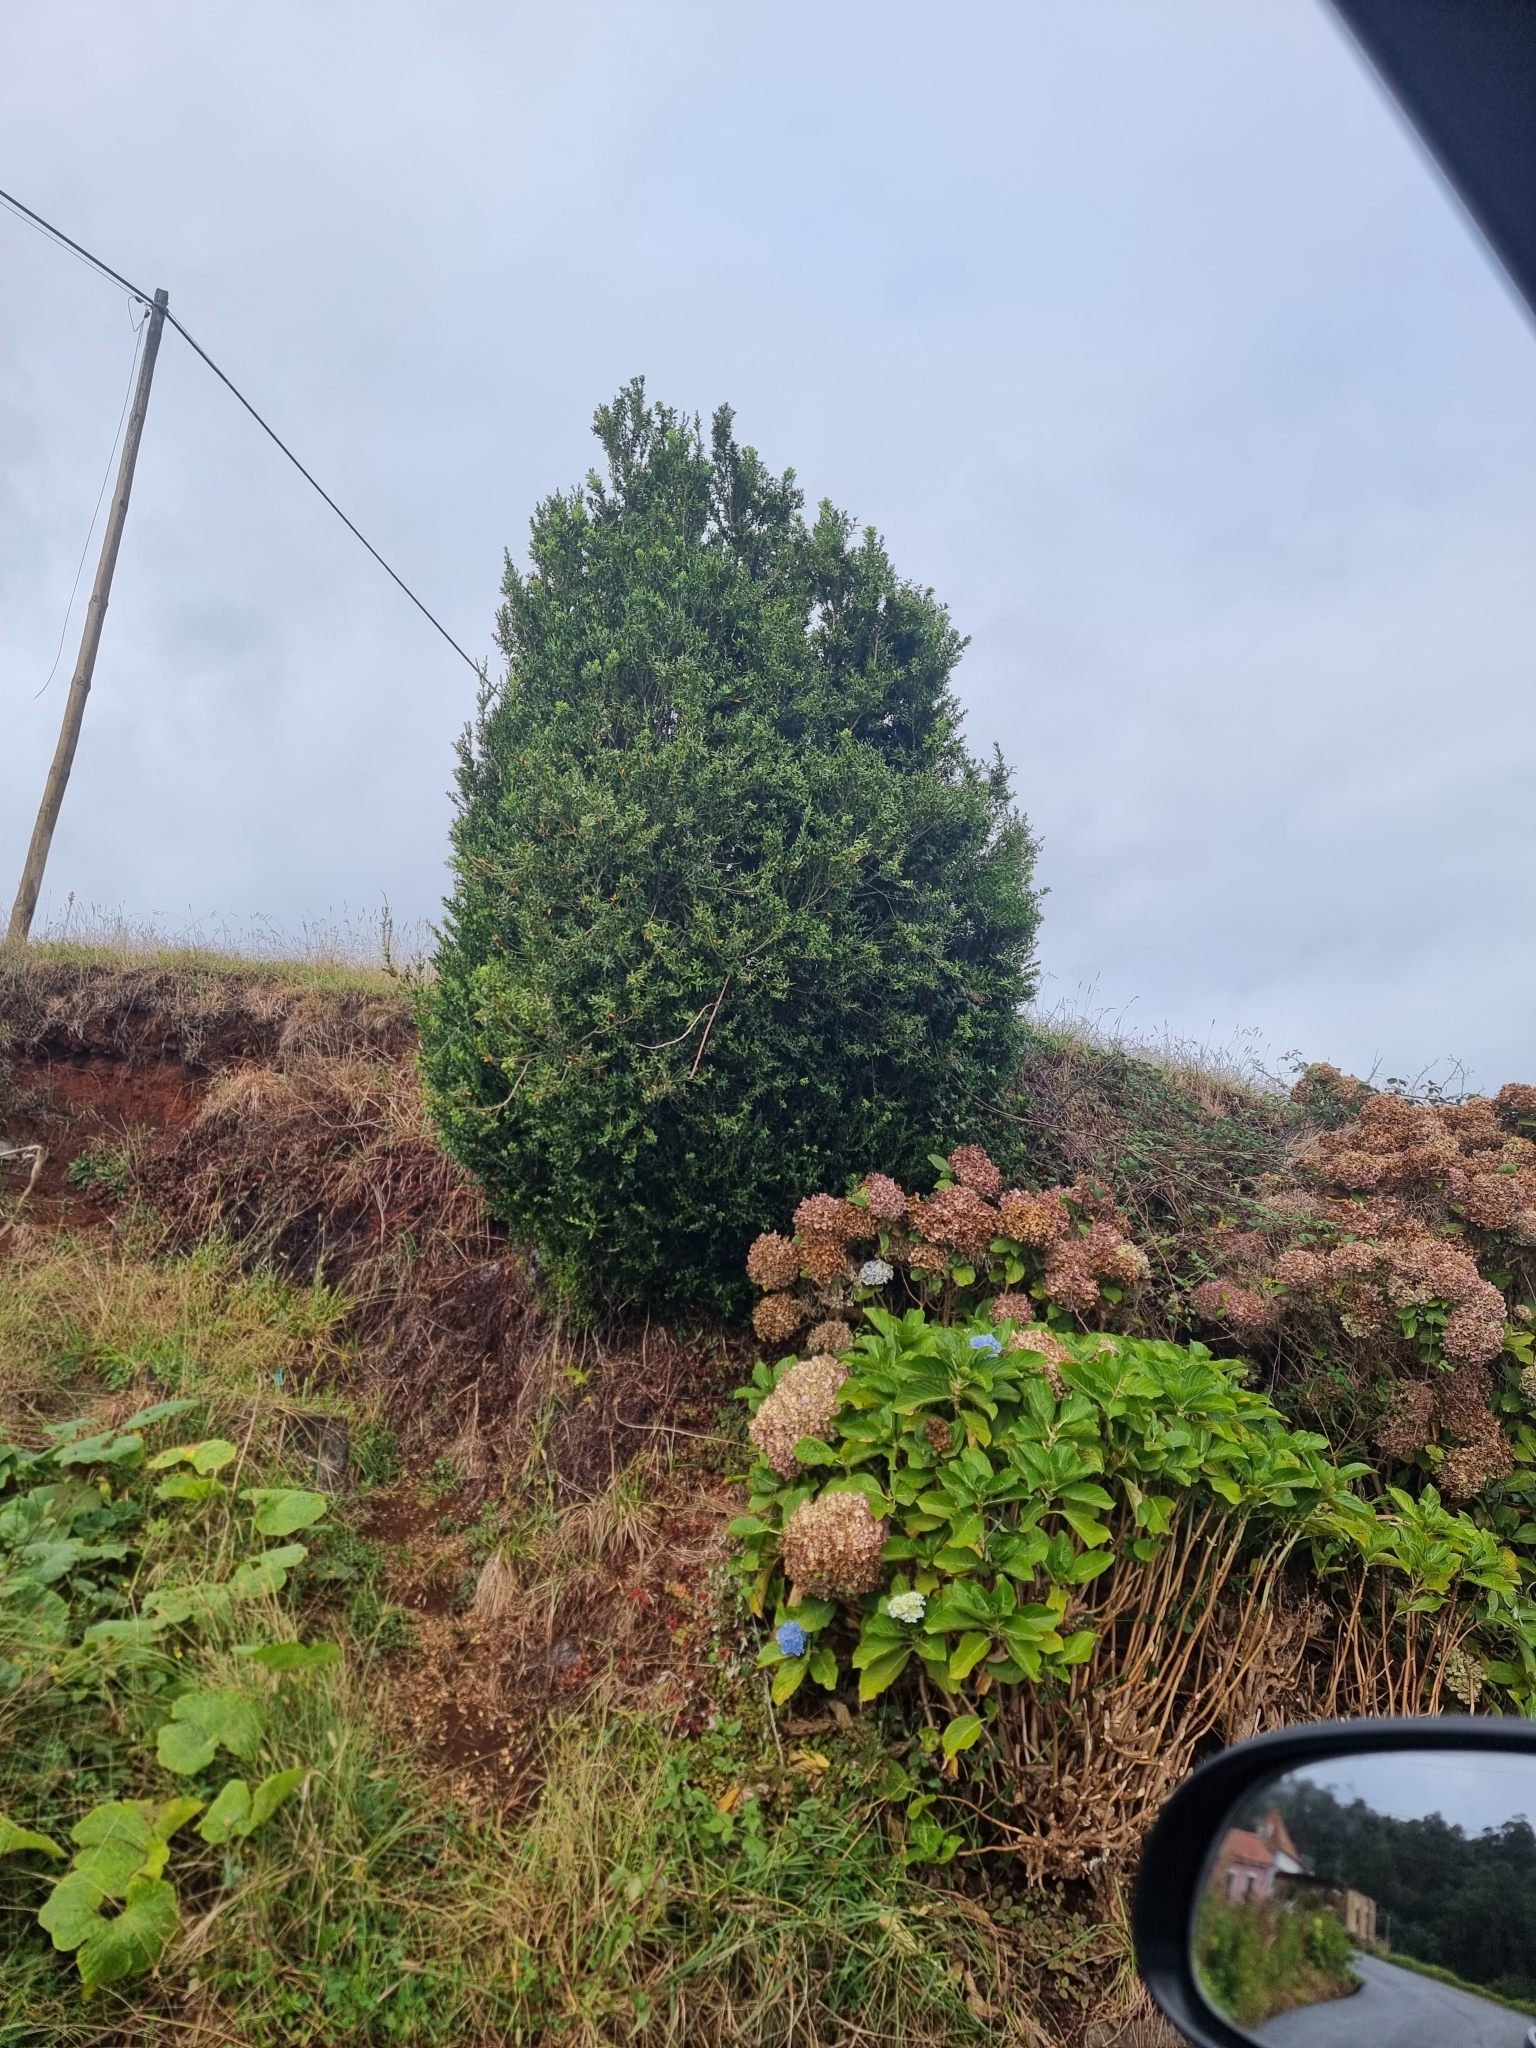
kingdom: Plantae
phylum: Tracheophyta
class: Magnoliopsida
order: Buxales
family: Buxaceae
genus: Buxus
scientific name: Buxus sempervirens
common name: Box
